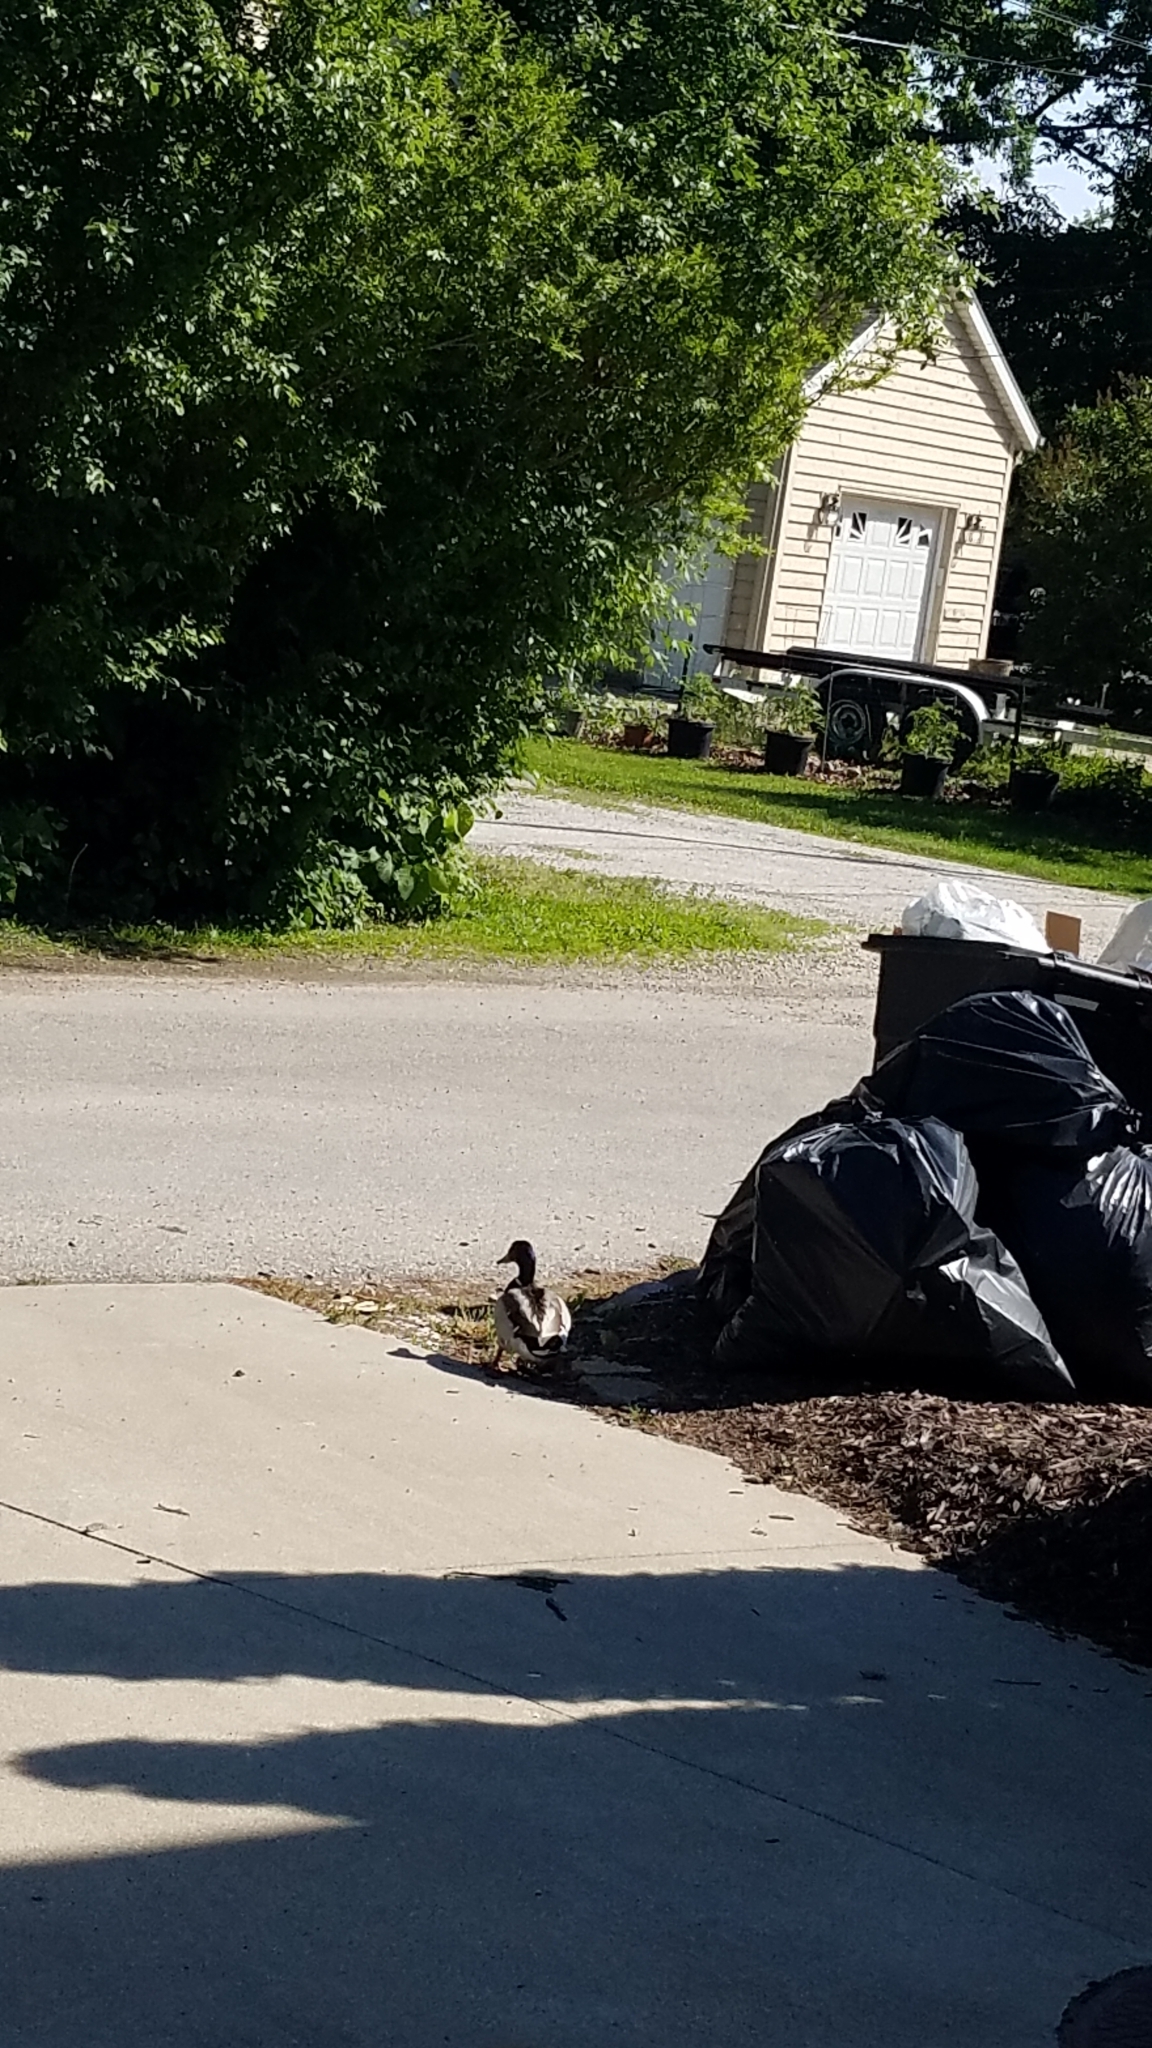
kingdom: Animalia
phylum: Chordata
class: Aves
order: Anseriformes
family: Anatidae
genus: Anas
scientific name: Anas platyrhynchos
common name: Mallard
